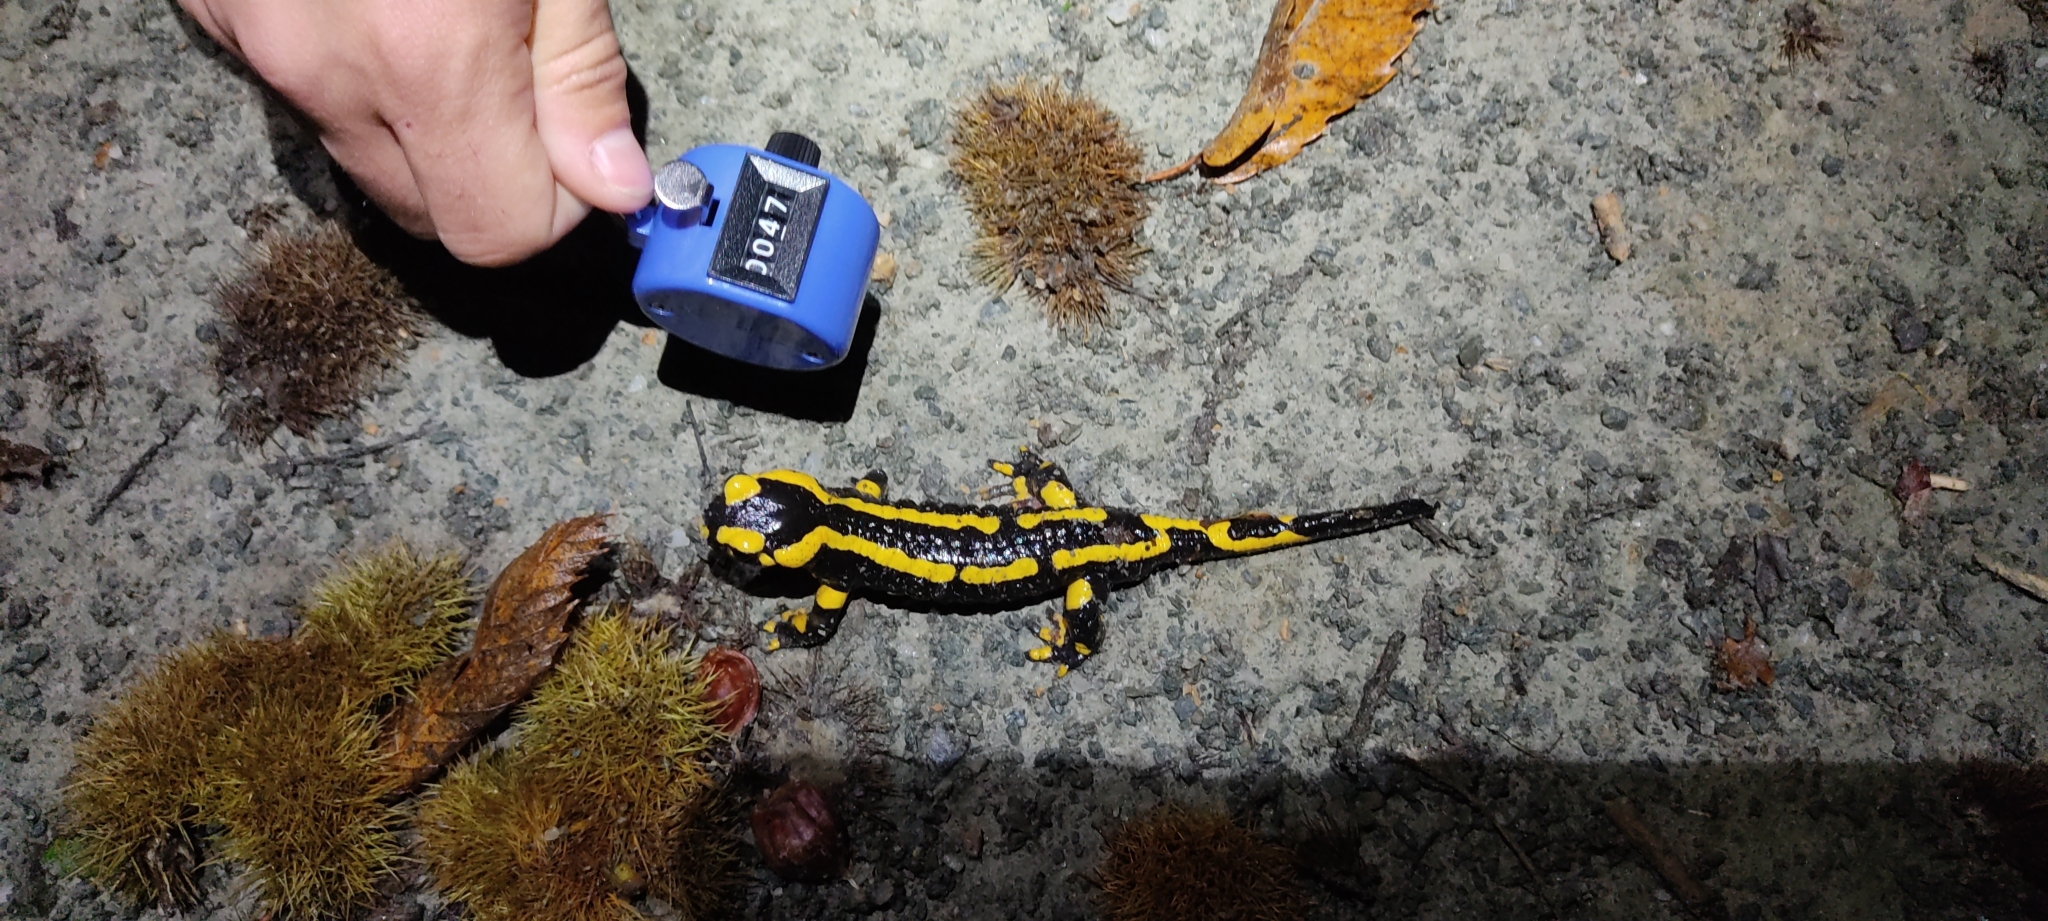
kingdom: Animalia
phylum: Chordata
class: Amphibia
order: Caudata
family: Salamandridae
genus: Salamandra
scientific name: Salamandra salamandra
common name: Fire salamander
